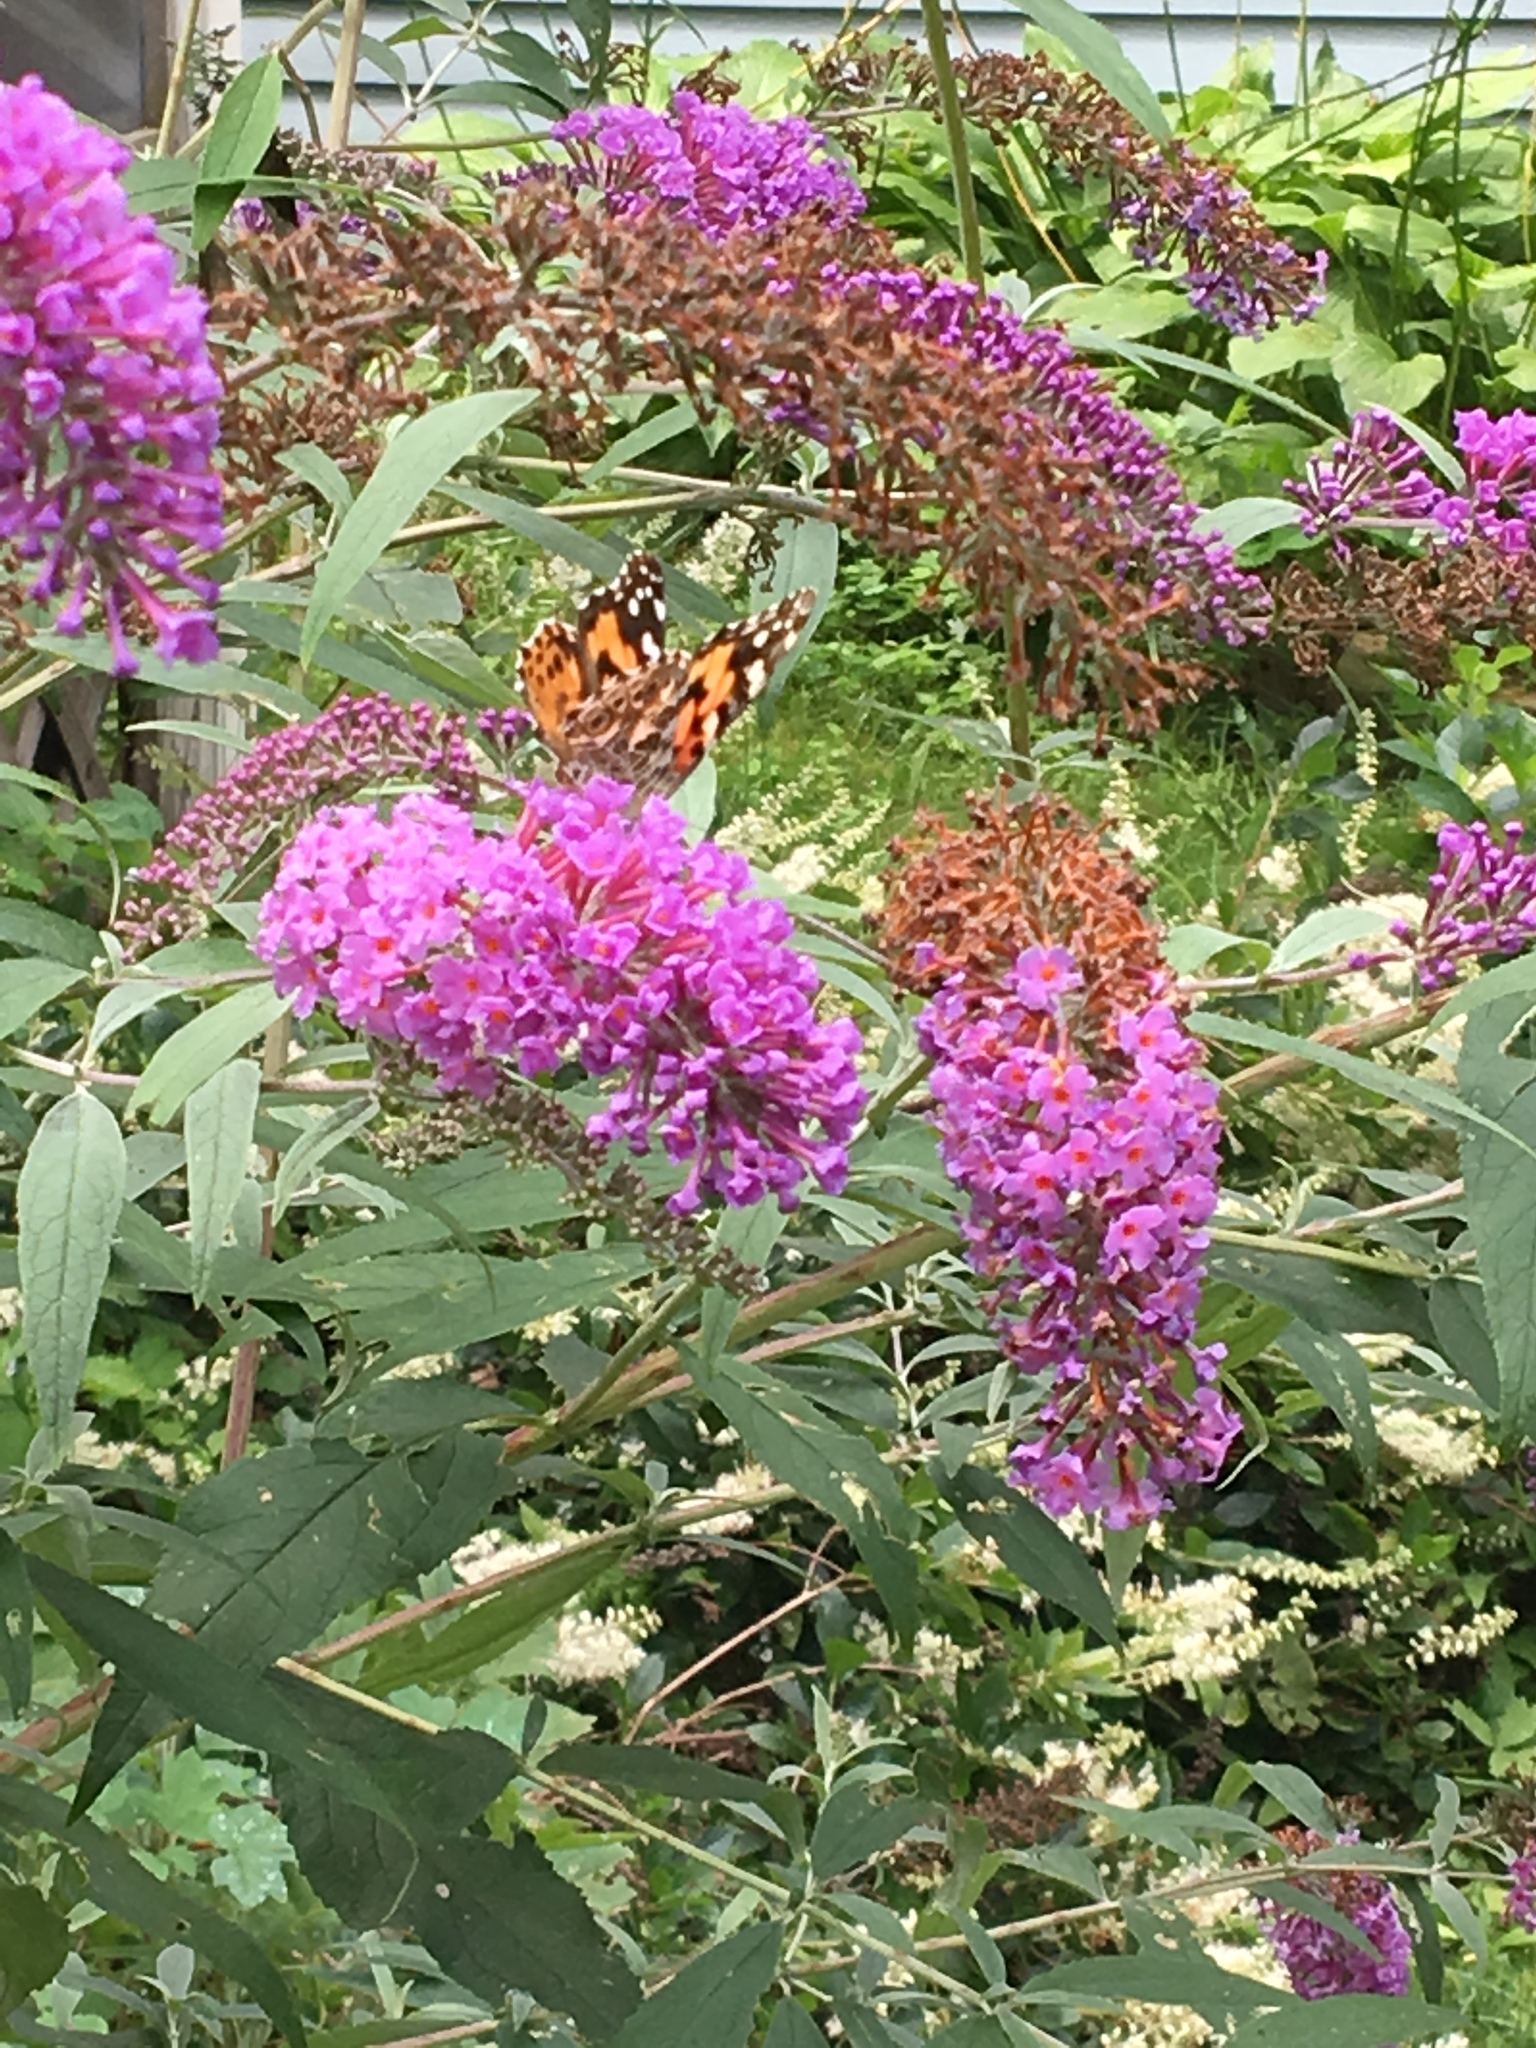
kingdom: Animalia
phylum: Arthropoda
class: Insecta
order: Lepidoptera
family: Nymphalidae
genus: Vanessa
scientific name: Vanessa cardui
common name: Painted lady
